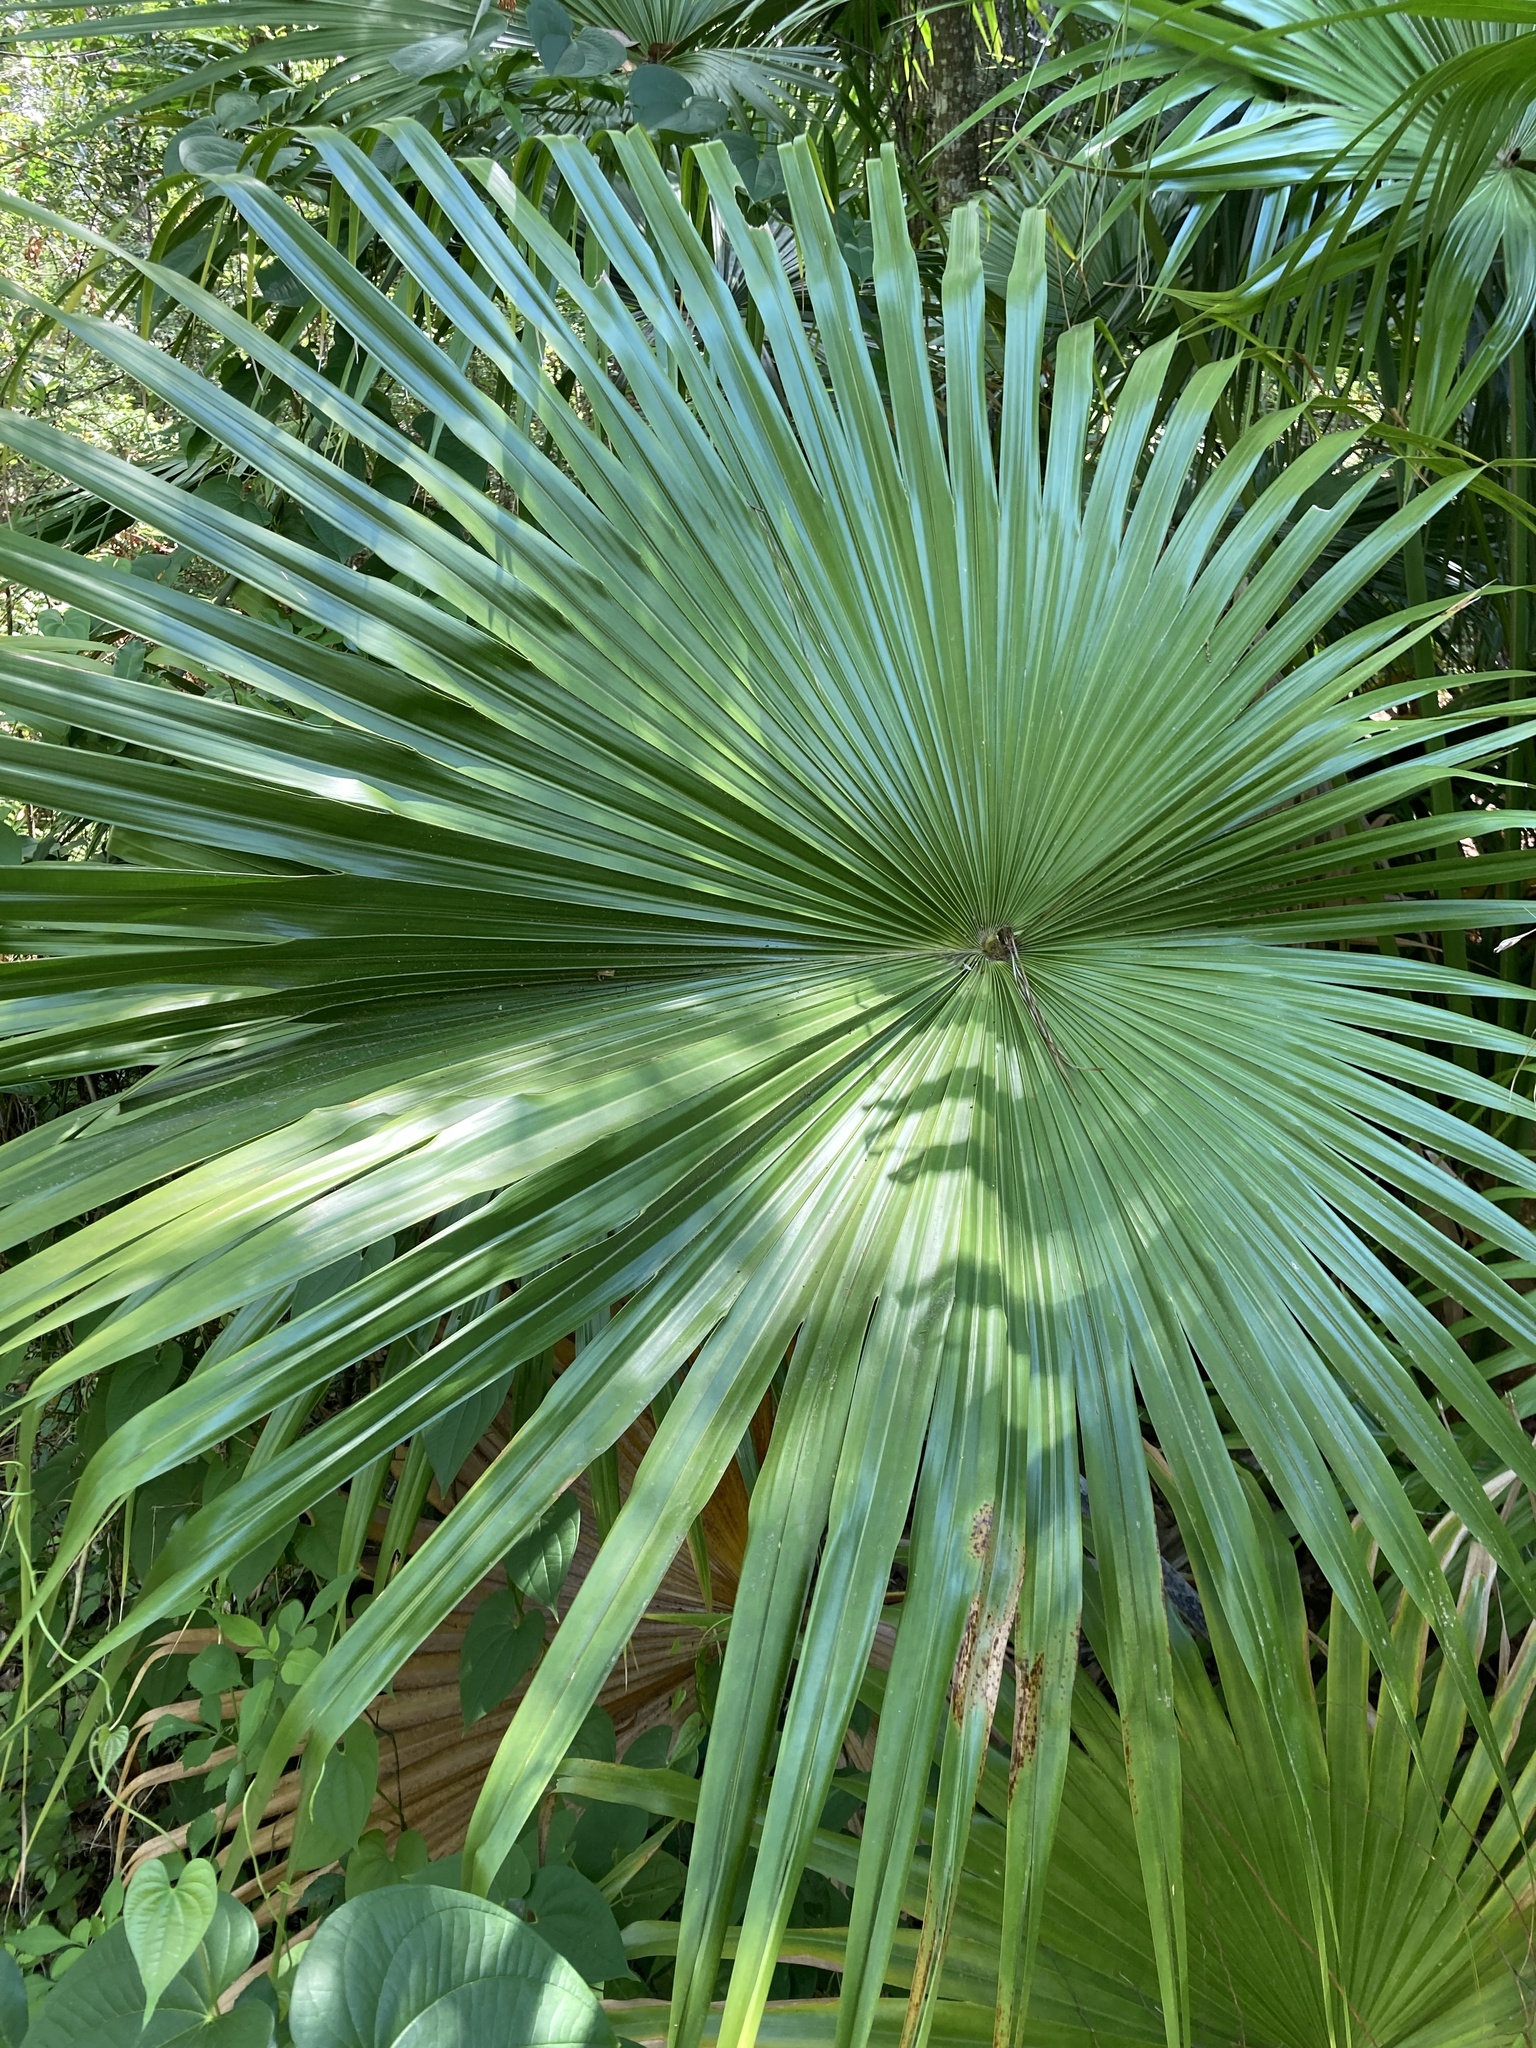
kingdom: Plantae
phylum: Tracheophyta
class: Liliopsida
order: Arecales
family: Arecaceae
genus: Livistona
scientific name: Livistona chinensis
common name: Fountain palm
